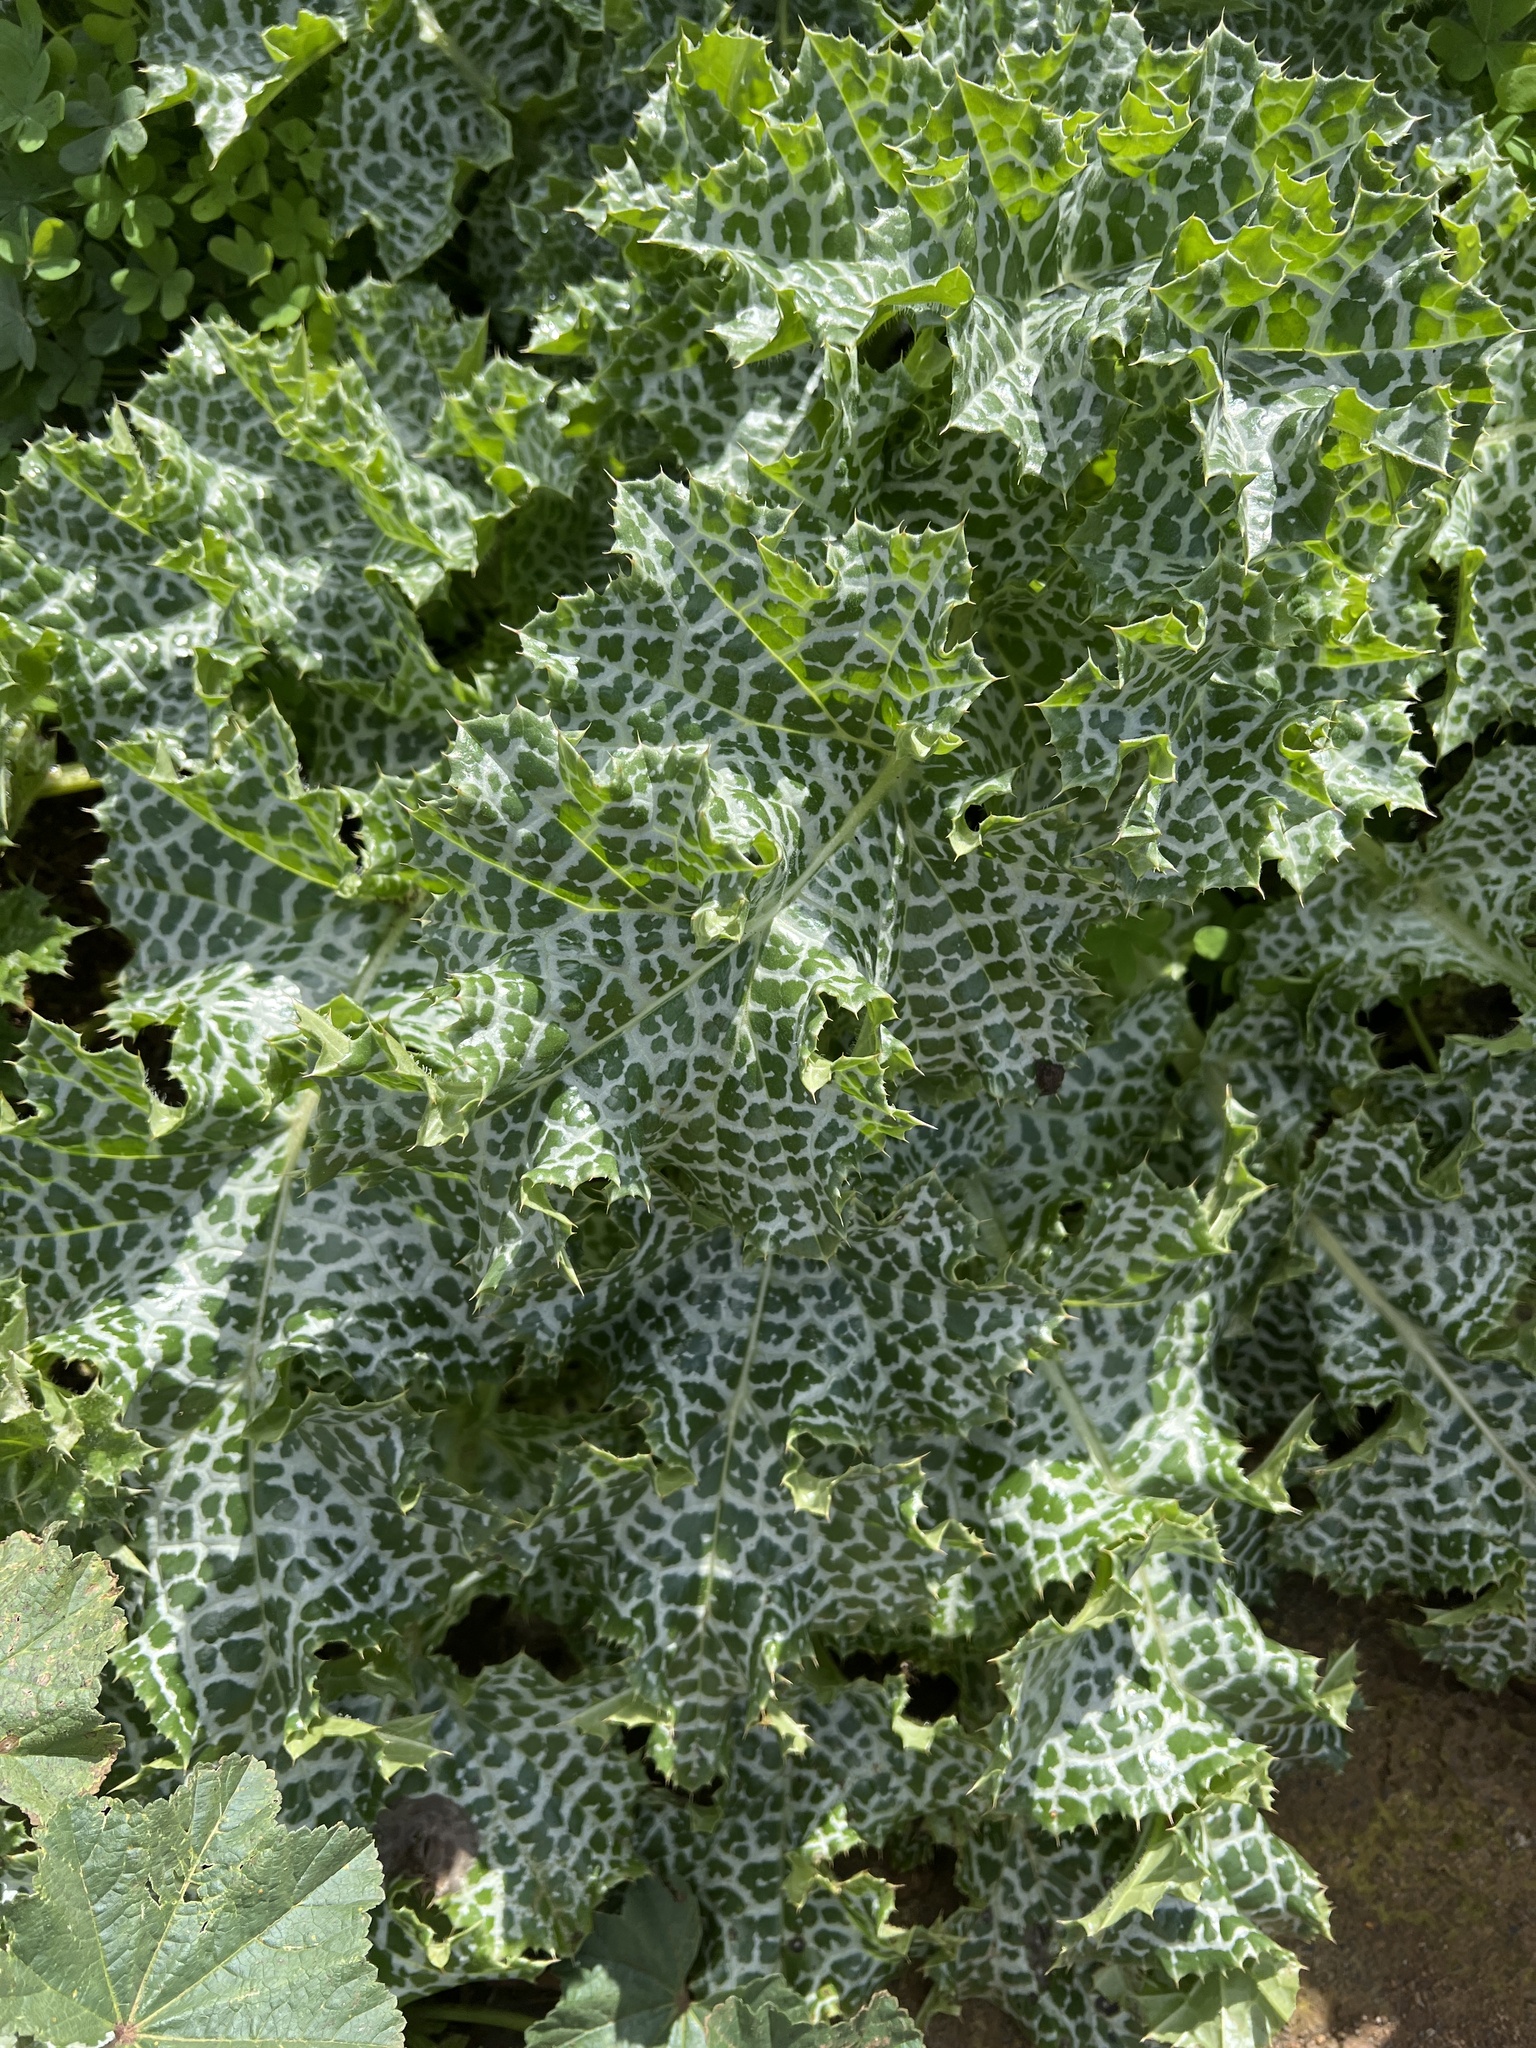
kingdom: Plantae
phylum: Tracheophyta
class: Magnoliopsida
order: Asterales
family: Asteraceae
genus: Silybum
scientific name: Silybum marianum
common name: Milk thistle
